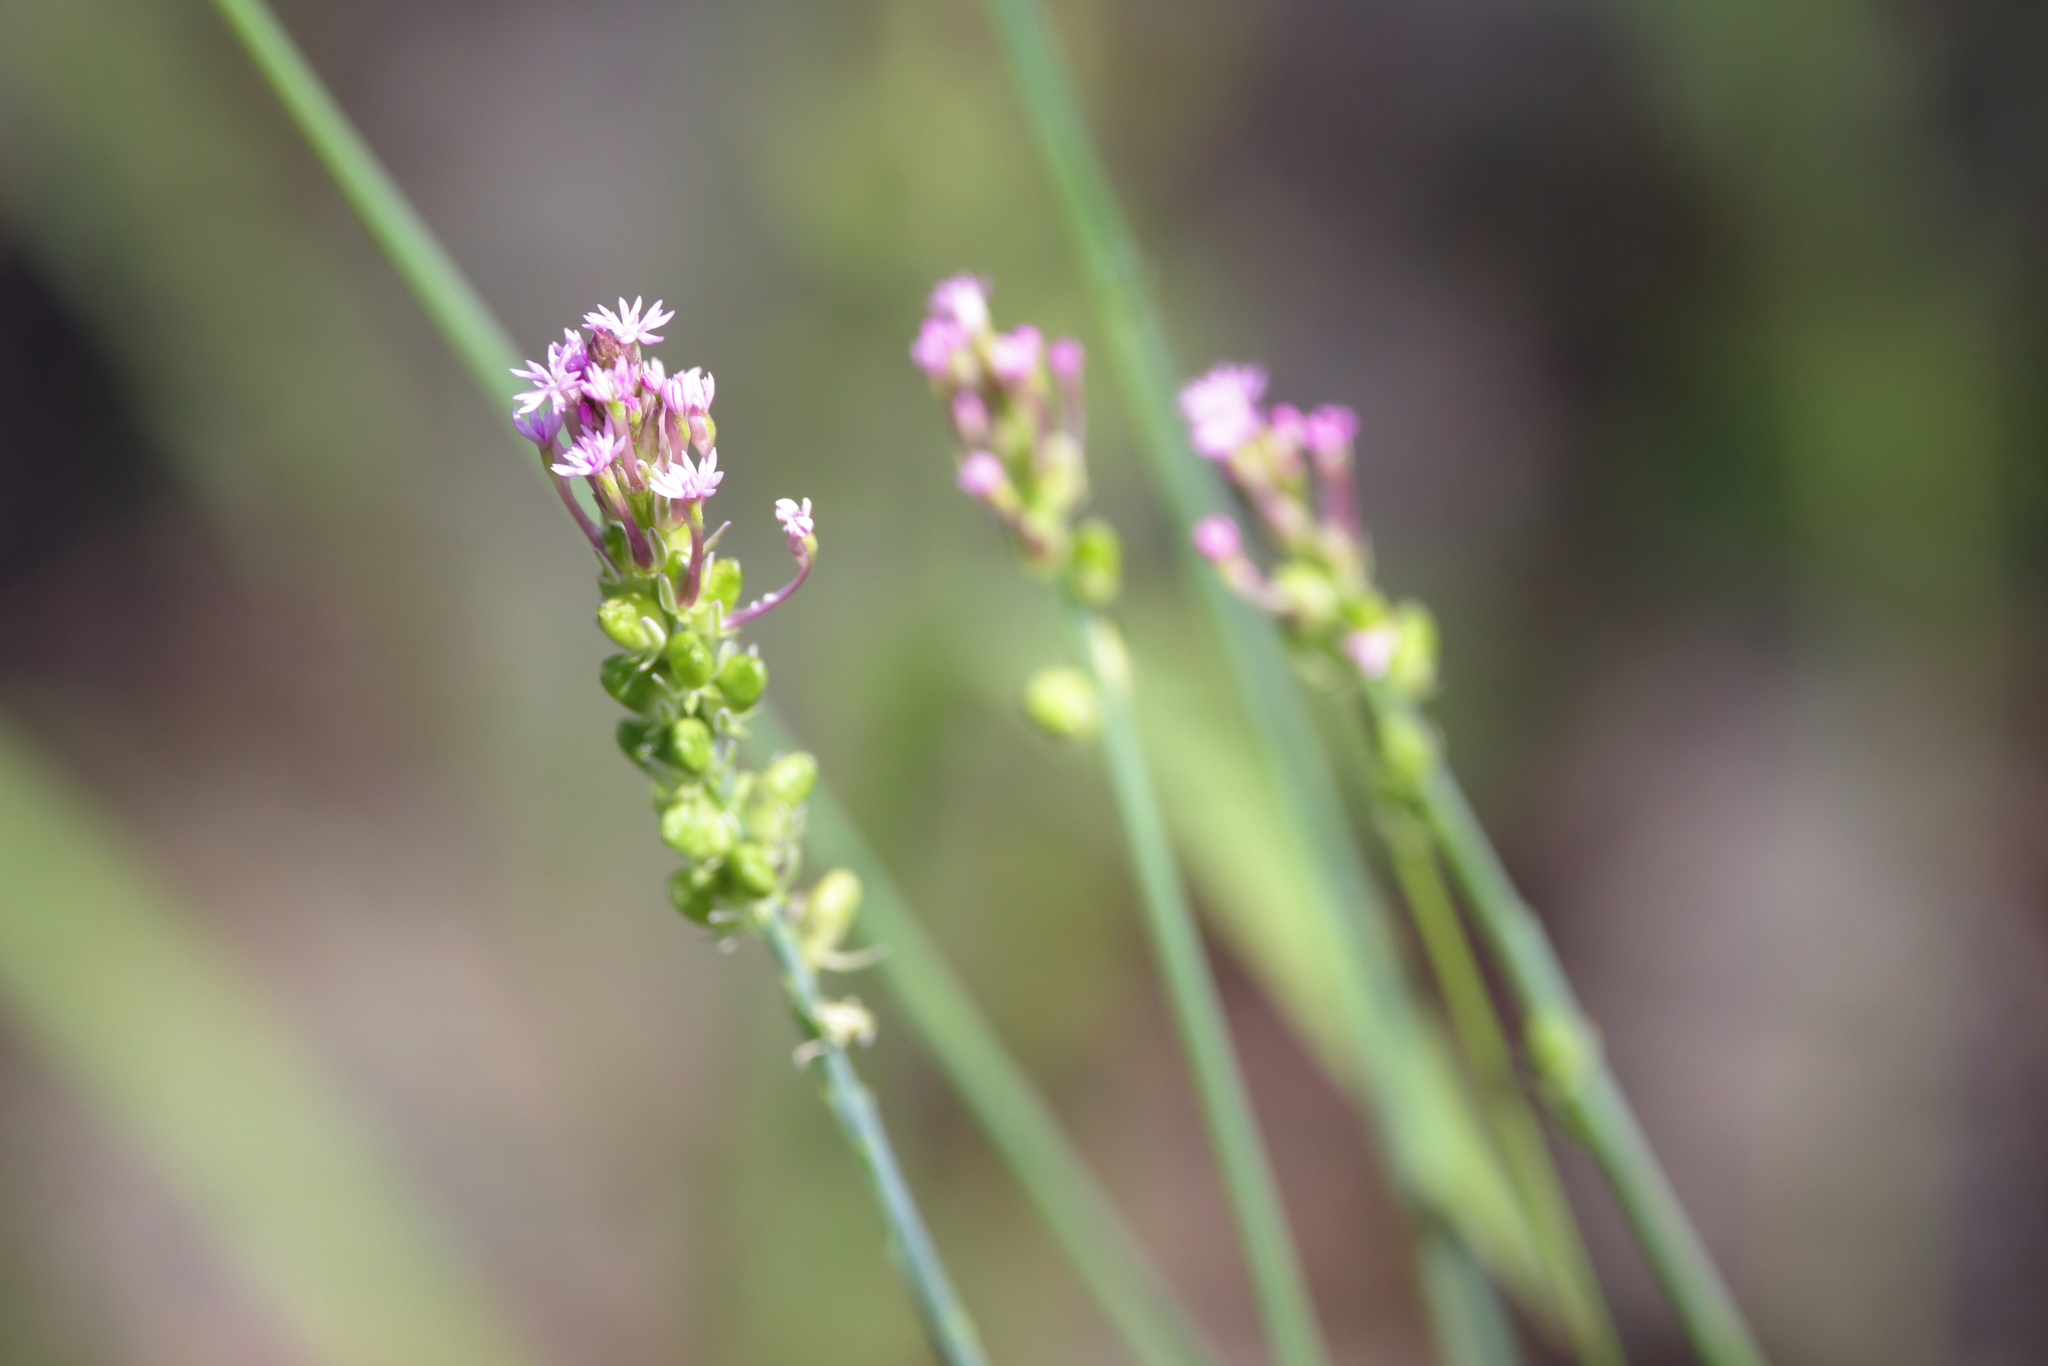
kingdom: Plantae
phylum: Tracheophyta
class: Magnoliopsida
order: Fabales
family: Polygalaceae
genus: Polygala
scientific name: Polygala incarnata
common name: Pink milkwort
